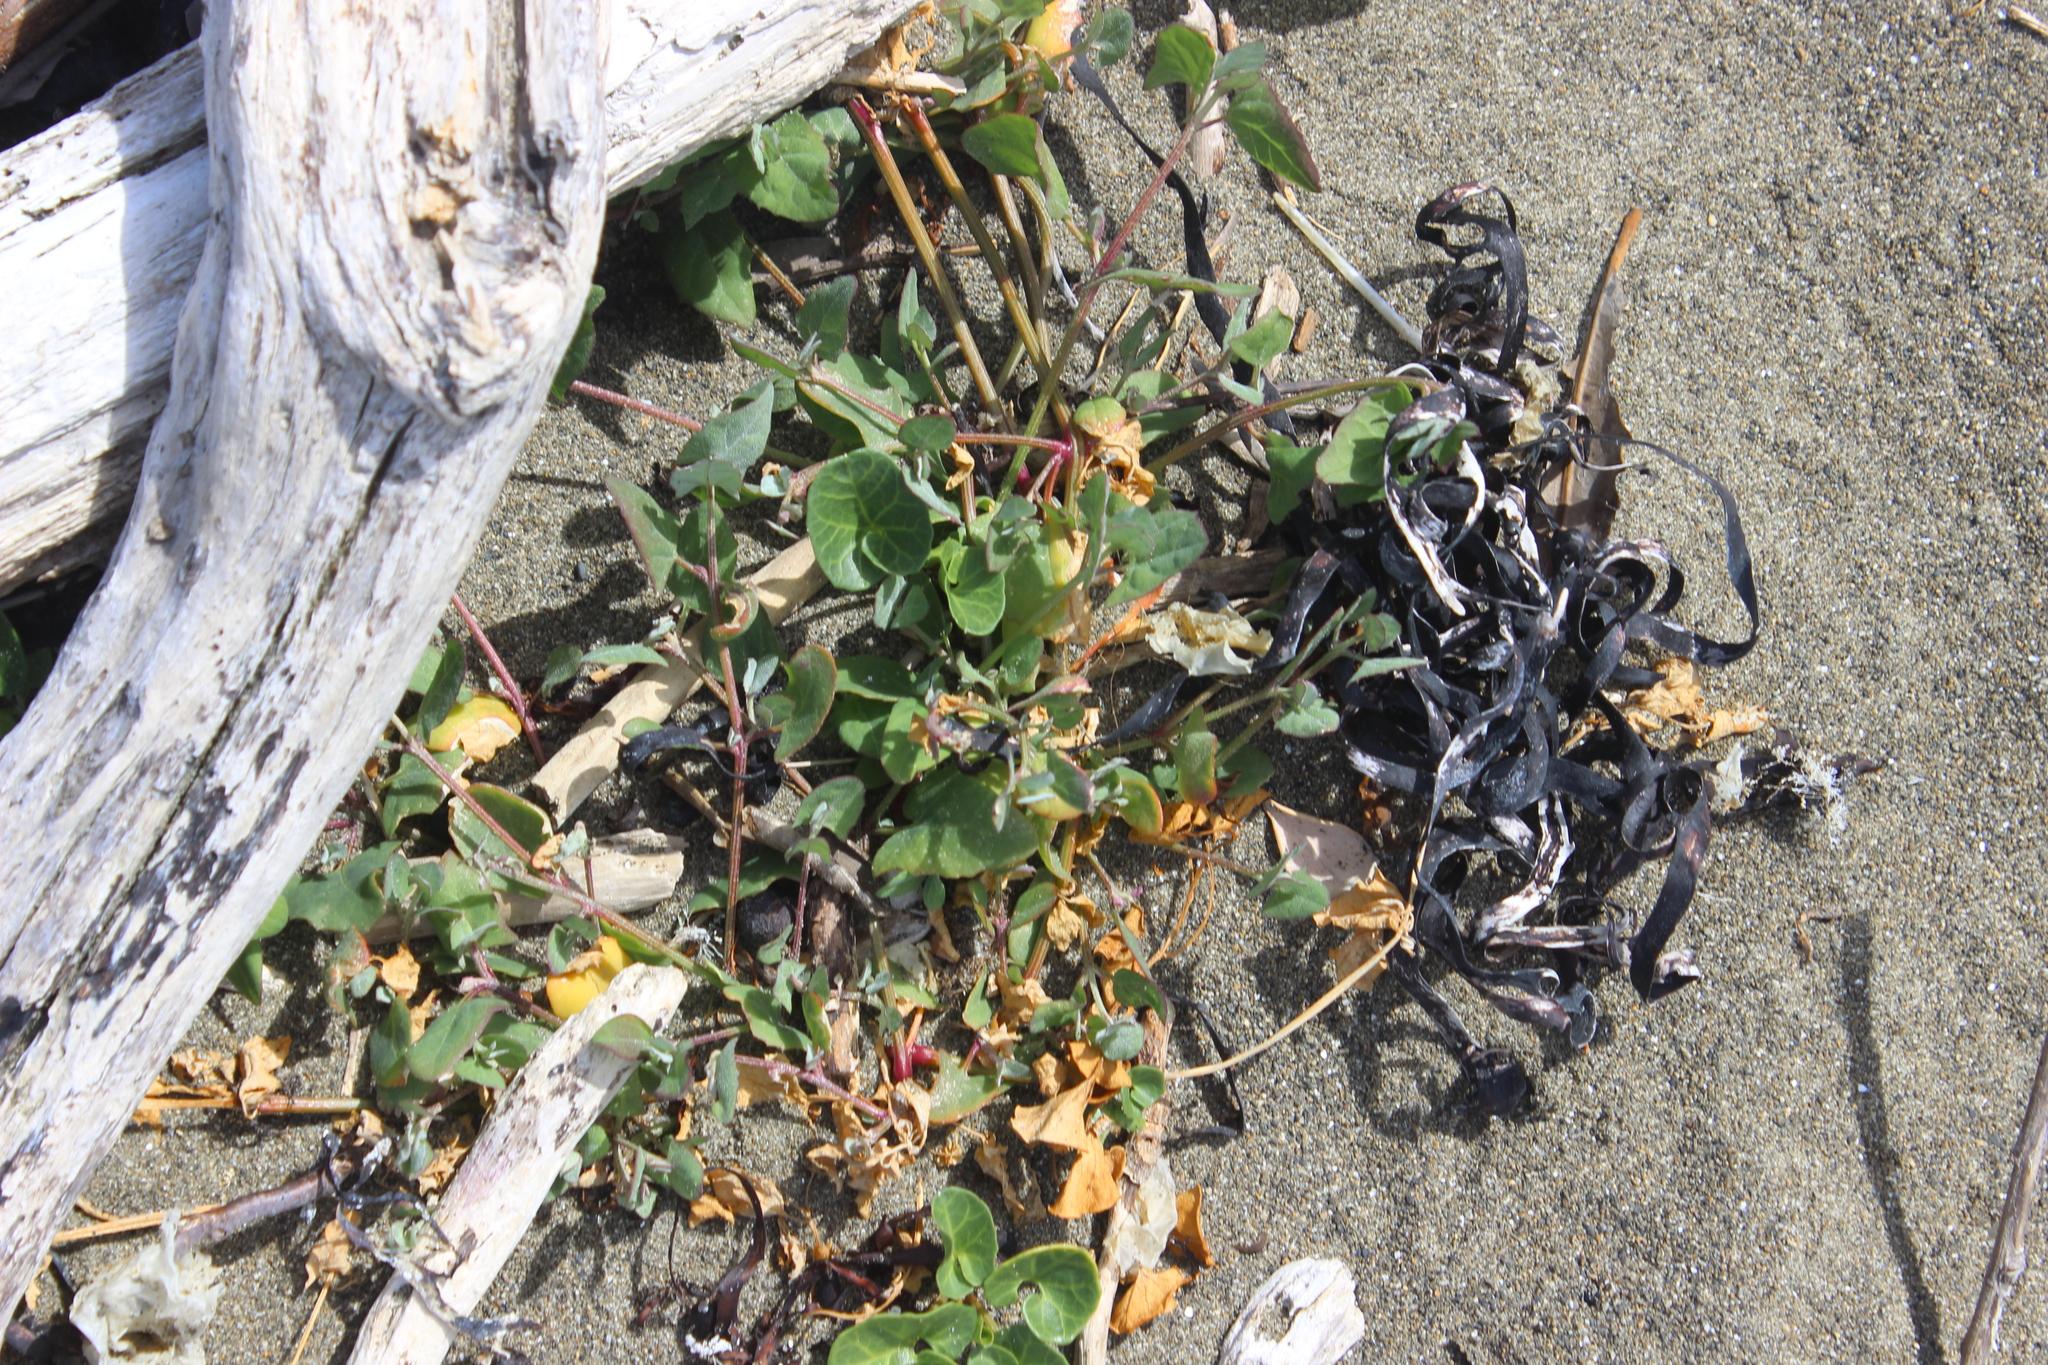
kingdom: Plantae
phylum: Tracheophyta
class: Magnoliopsida
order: Solanales
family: Convolvulaceae
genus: Calystegia
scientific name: Calystegia soldanella
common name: Sea bindweed
